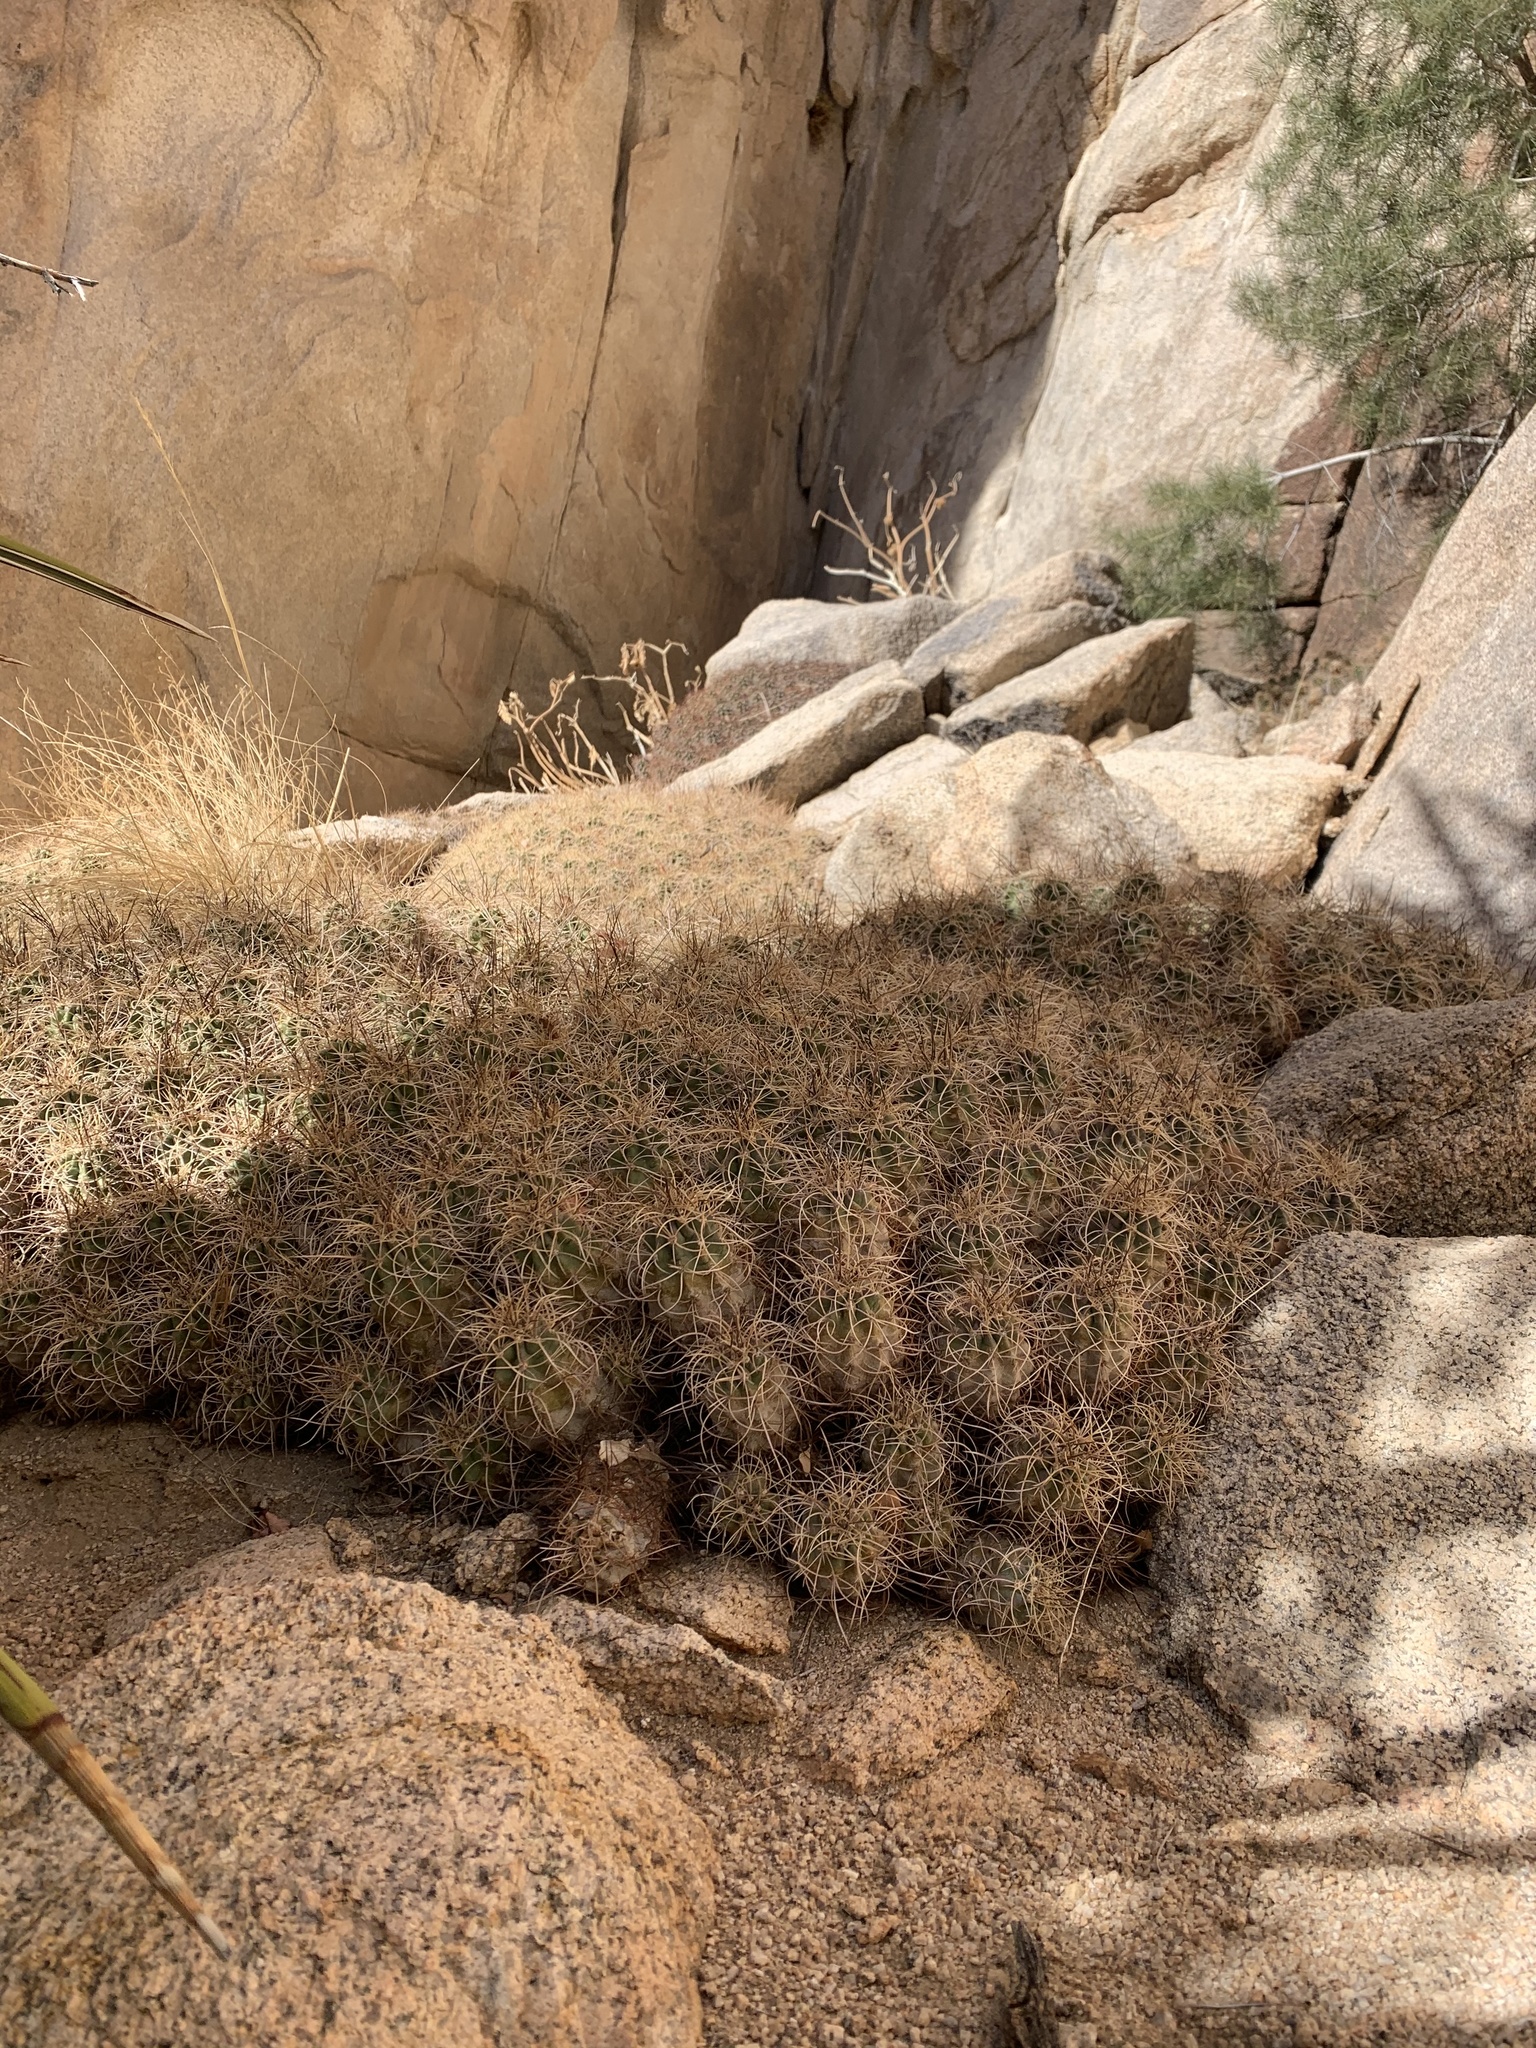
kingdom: Plantae
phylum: Tracheophyta
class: Magnoliopsida
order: Caryophyllales
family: Cactaceae
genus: Echinocereus
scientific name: Echinocereus triglochidiatus
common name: Claretcup hedgehog
